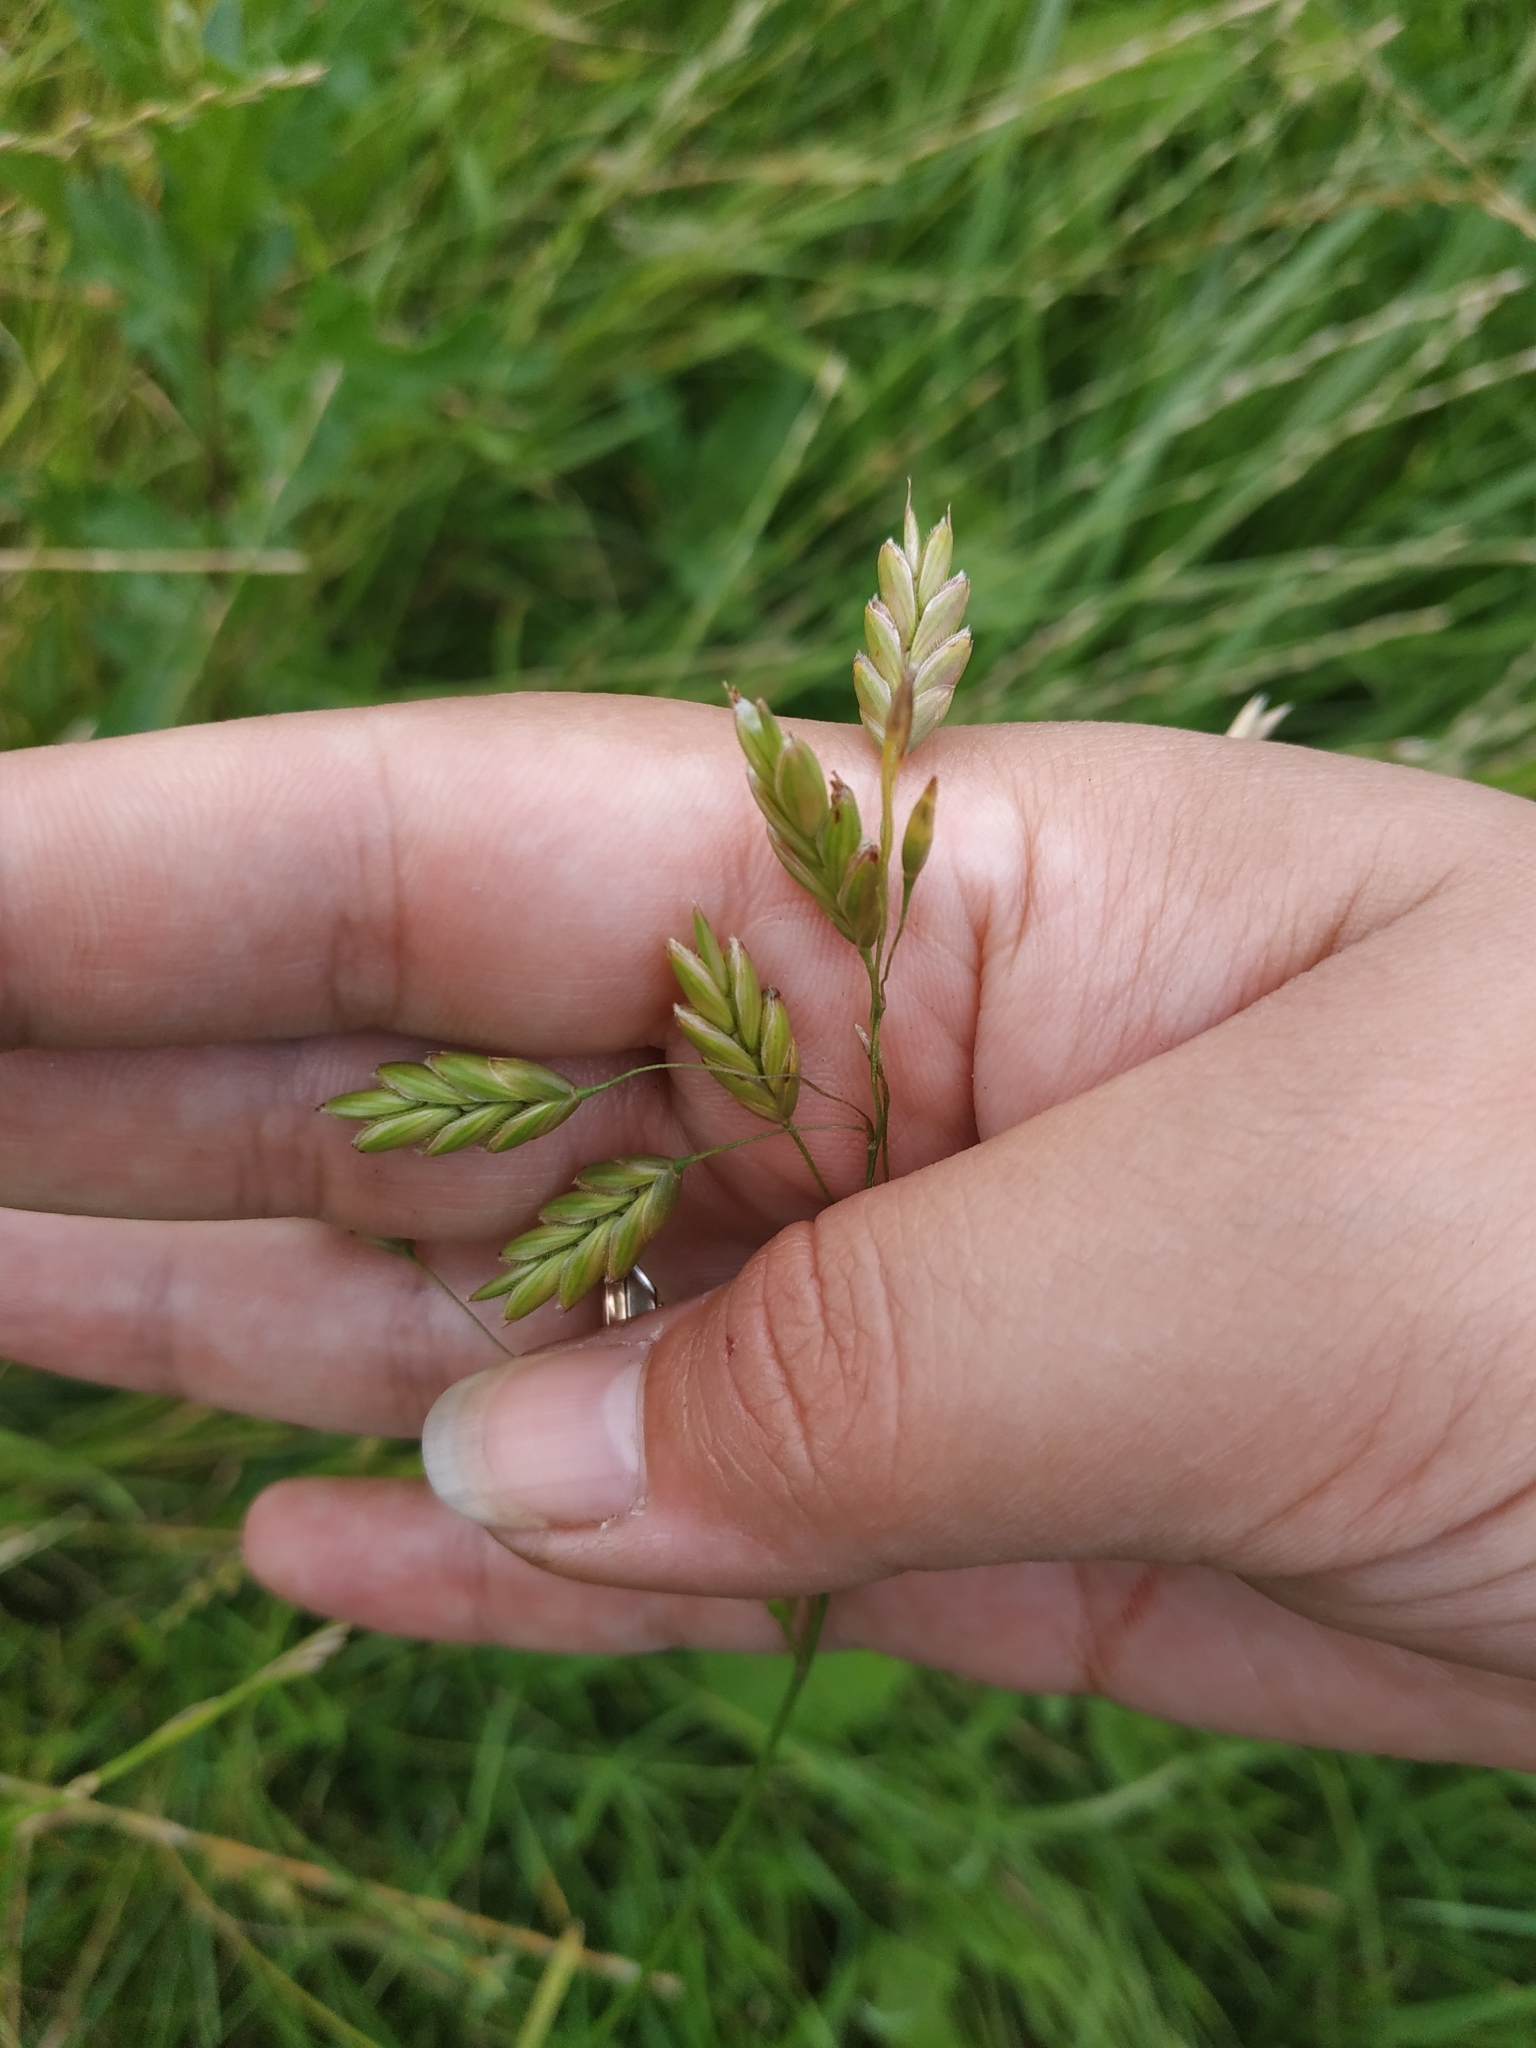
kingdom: Plantae
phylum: Tracheophyta
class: Liliopsida
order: Poales
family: Poaceae
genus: Bromus
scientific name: Bromus secalinus
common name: Rye brome
